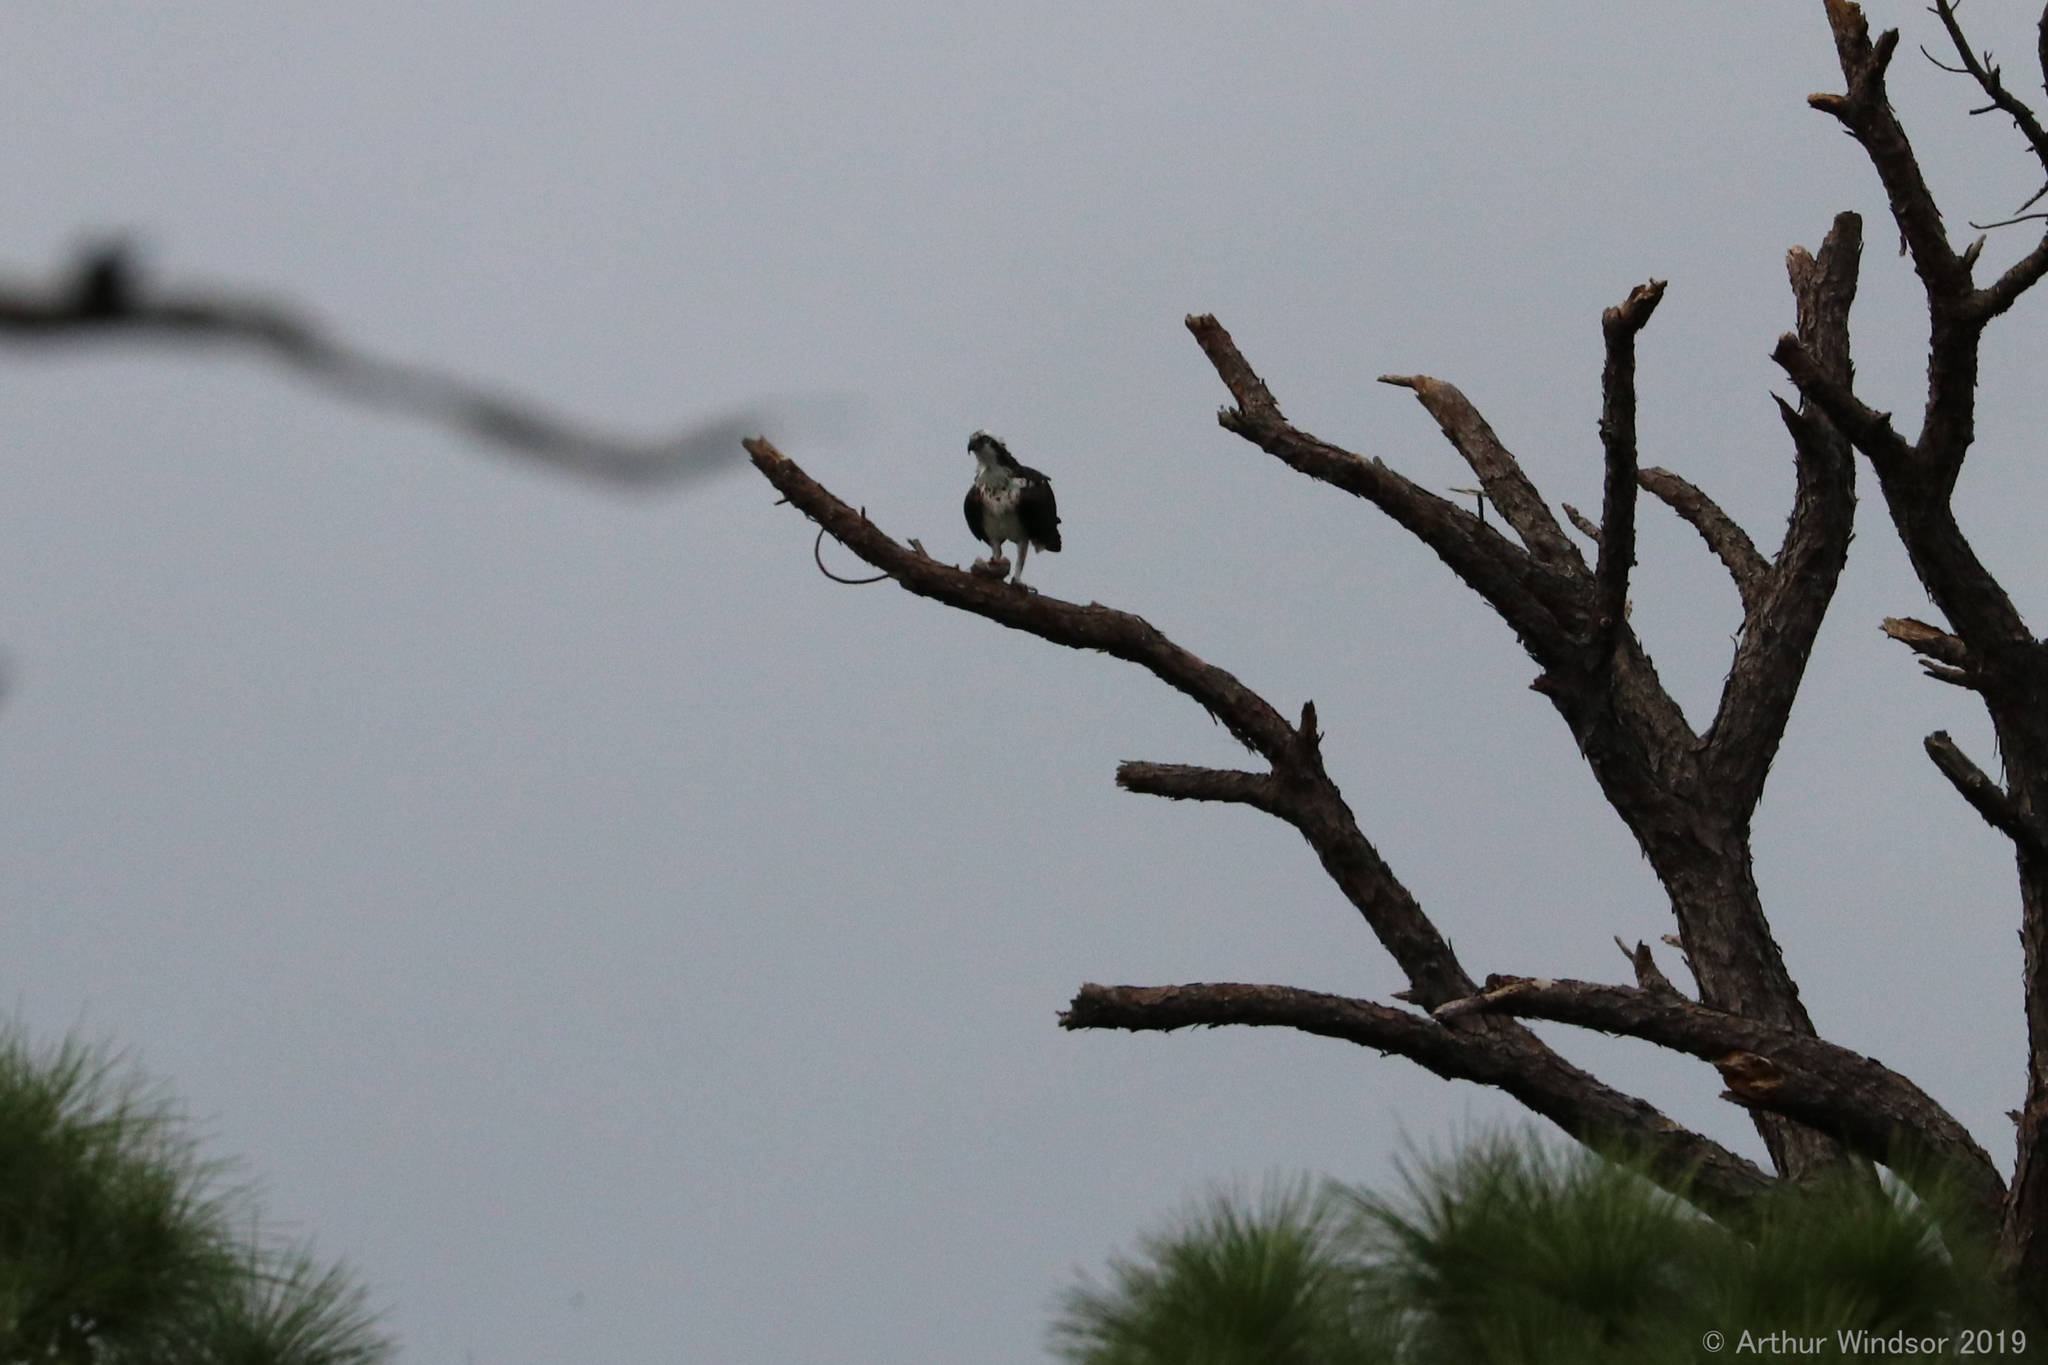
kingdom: Animalia
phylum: Chordata
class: Aves
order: Accipitriformes
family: Pandionidae
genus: Pandion
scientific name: Pandion haliaetus
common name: Osprey
